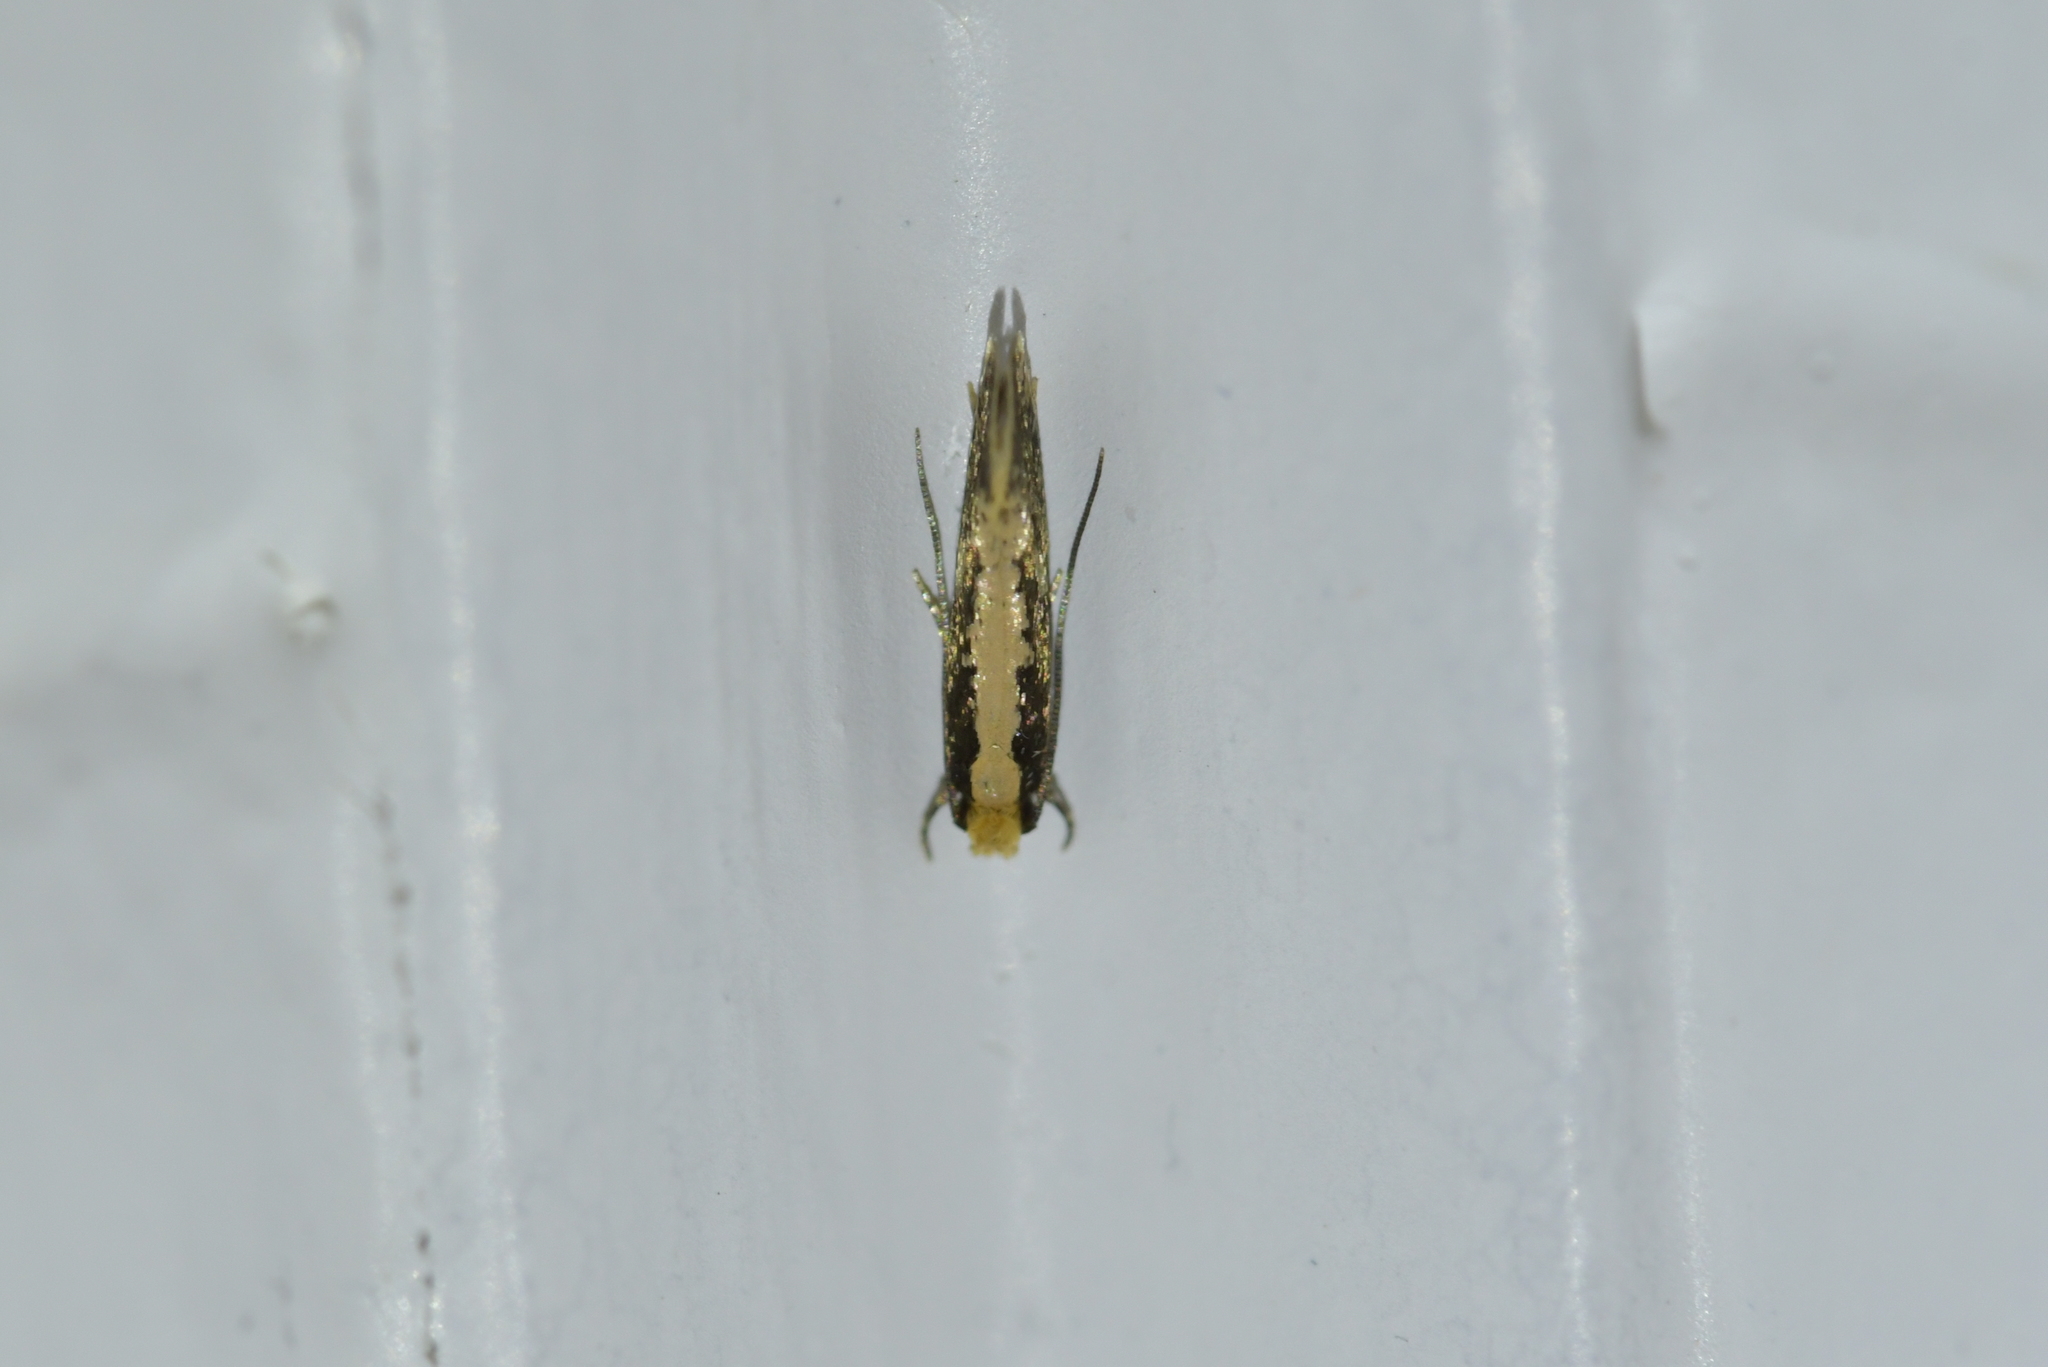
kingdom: Animalia
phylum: Arthropoda
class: Insecta
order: Lepidoptera
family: Tineidae
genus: Monopis
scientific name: Monopis crocicapitella
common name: Moth
